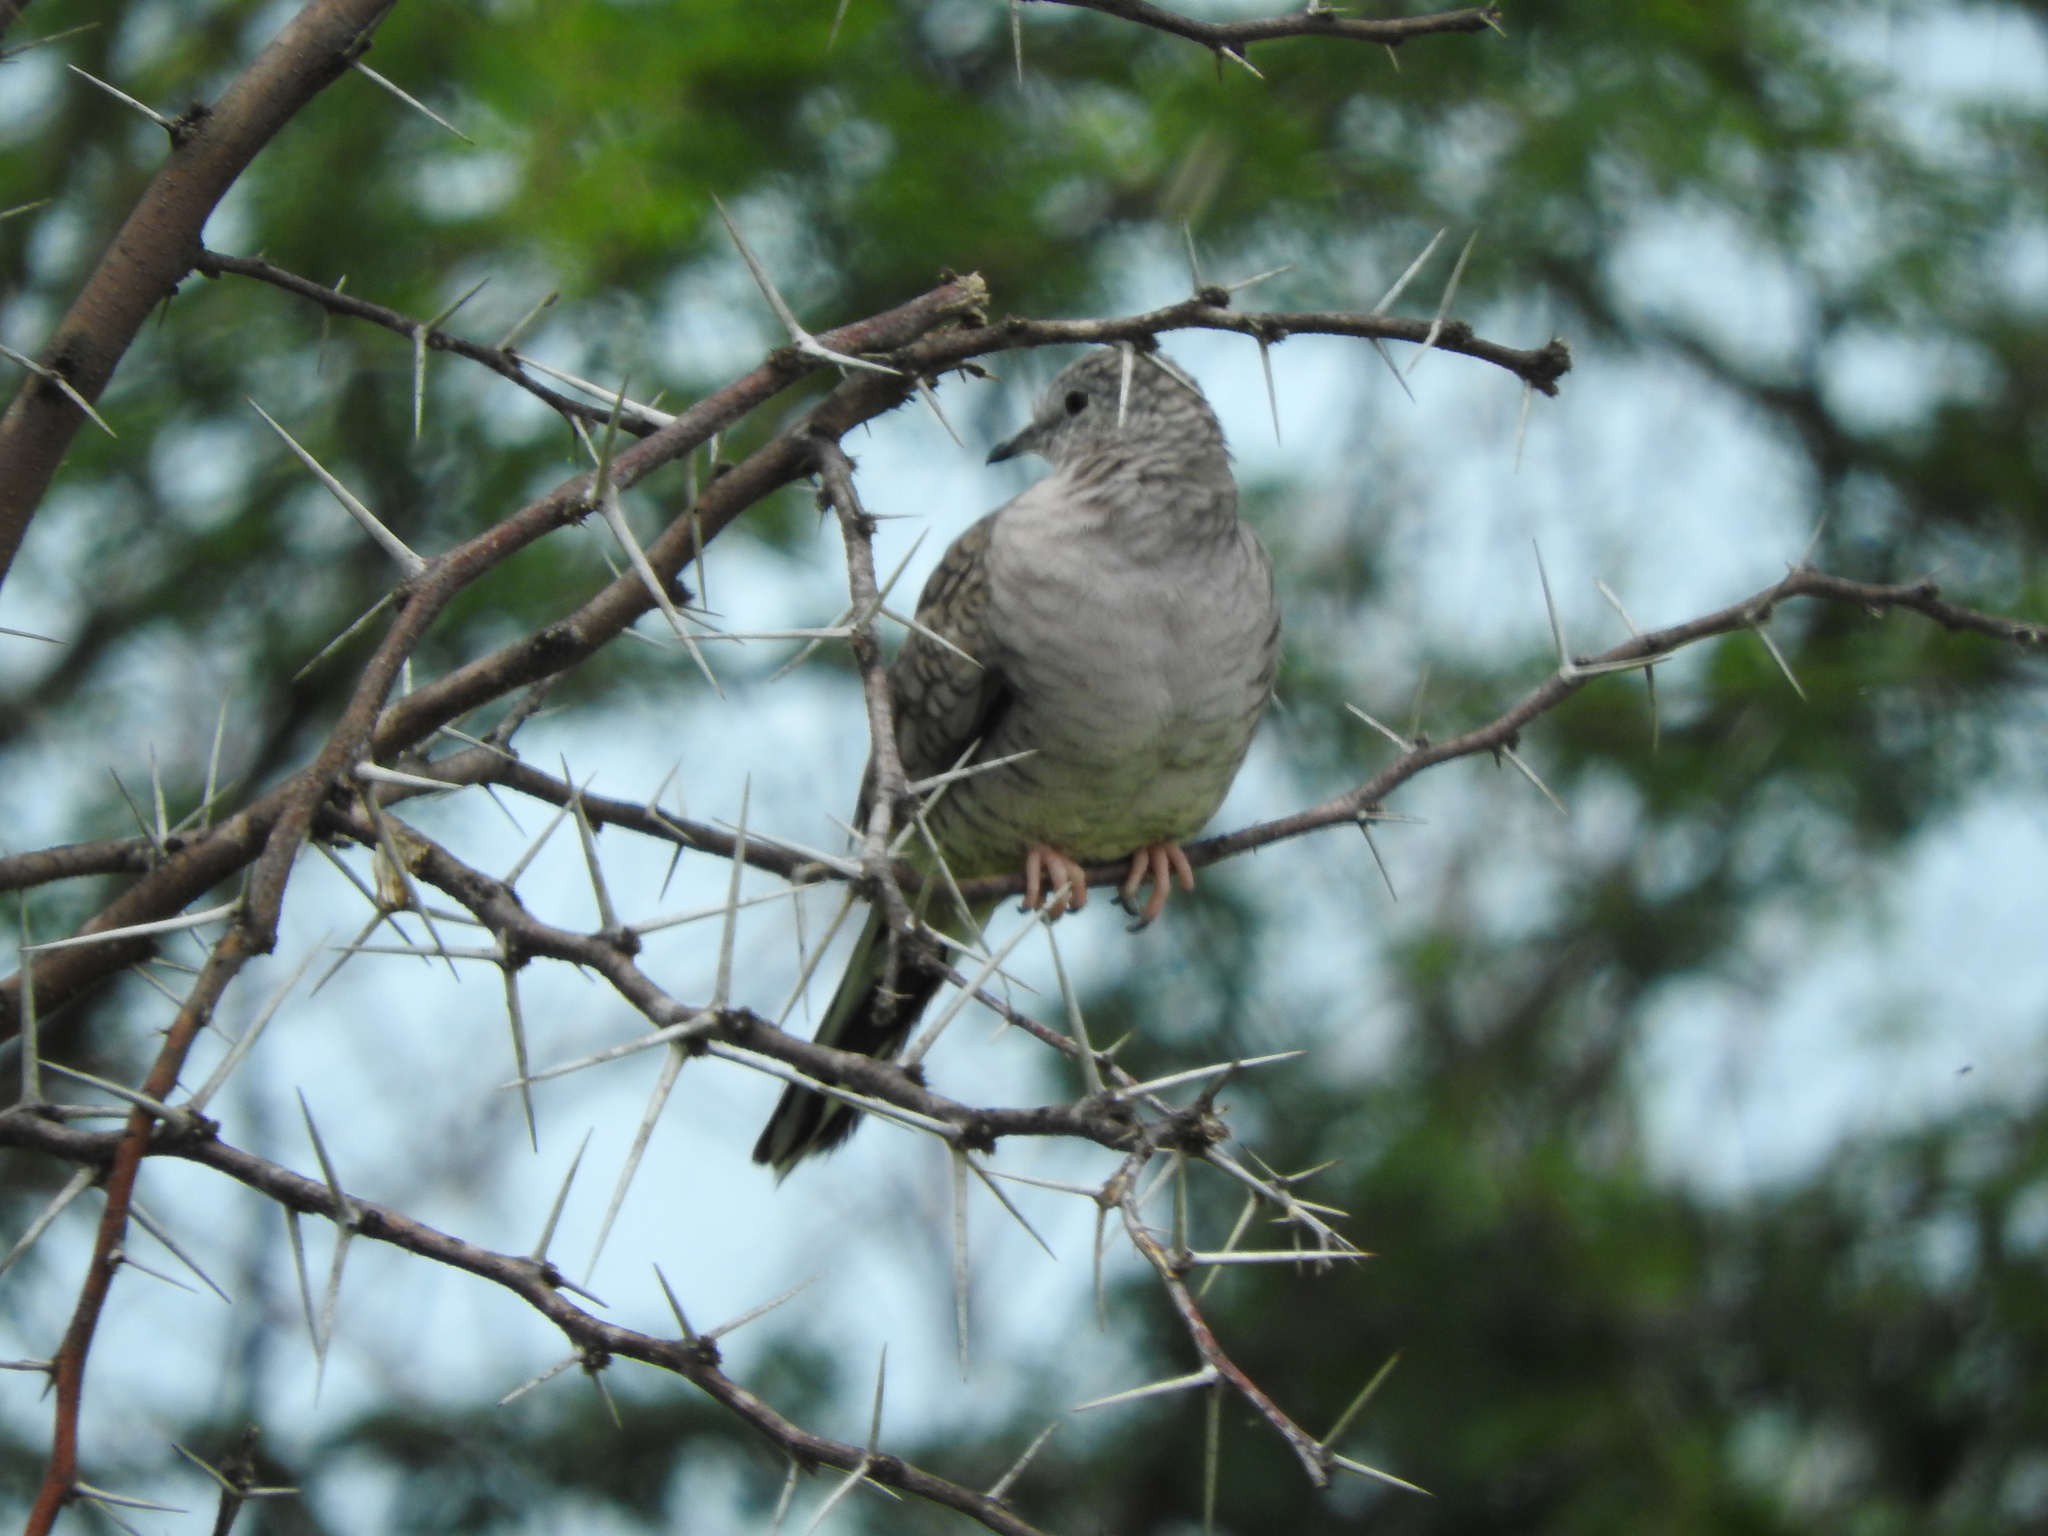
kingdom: Animalia
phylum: Chordata
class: Aves
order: Columbiformes
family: Columbidae
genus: Columbina
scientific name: Columbina inca
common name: Inca dove
